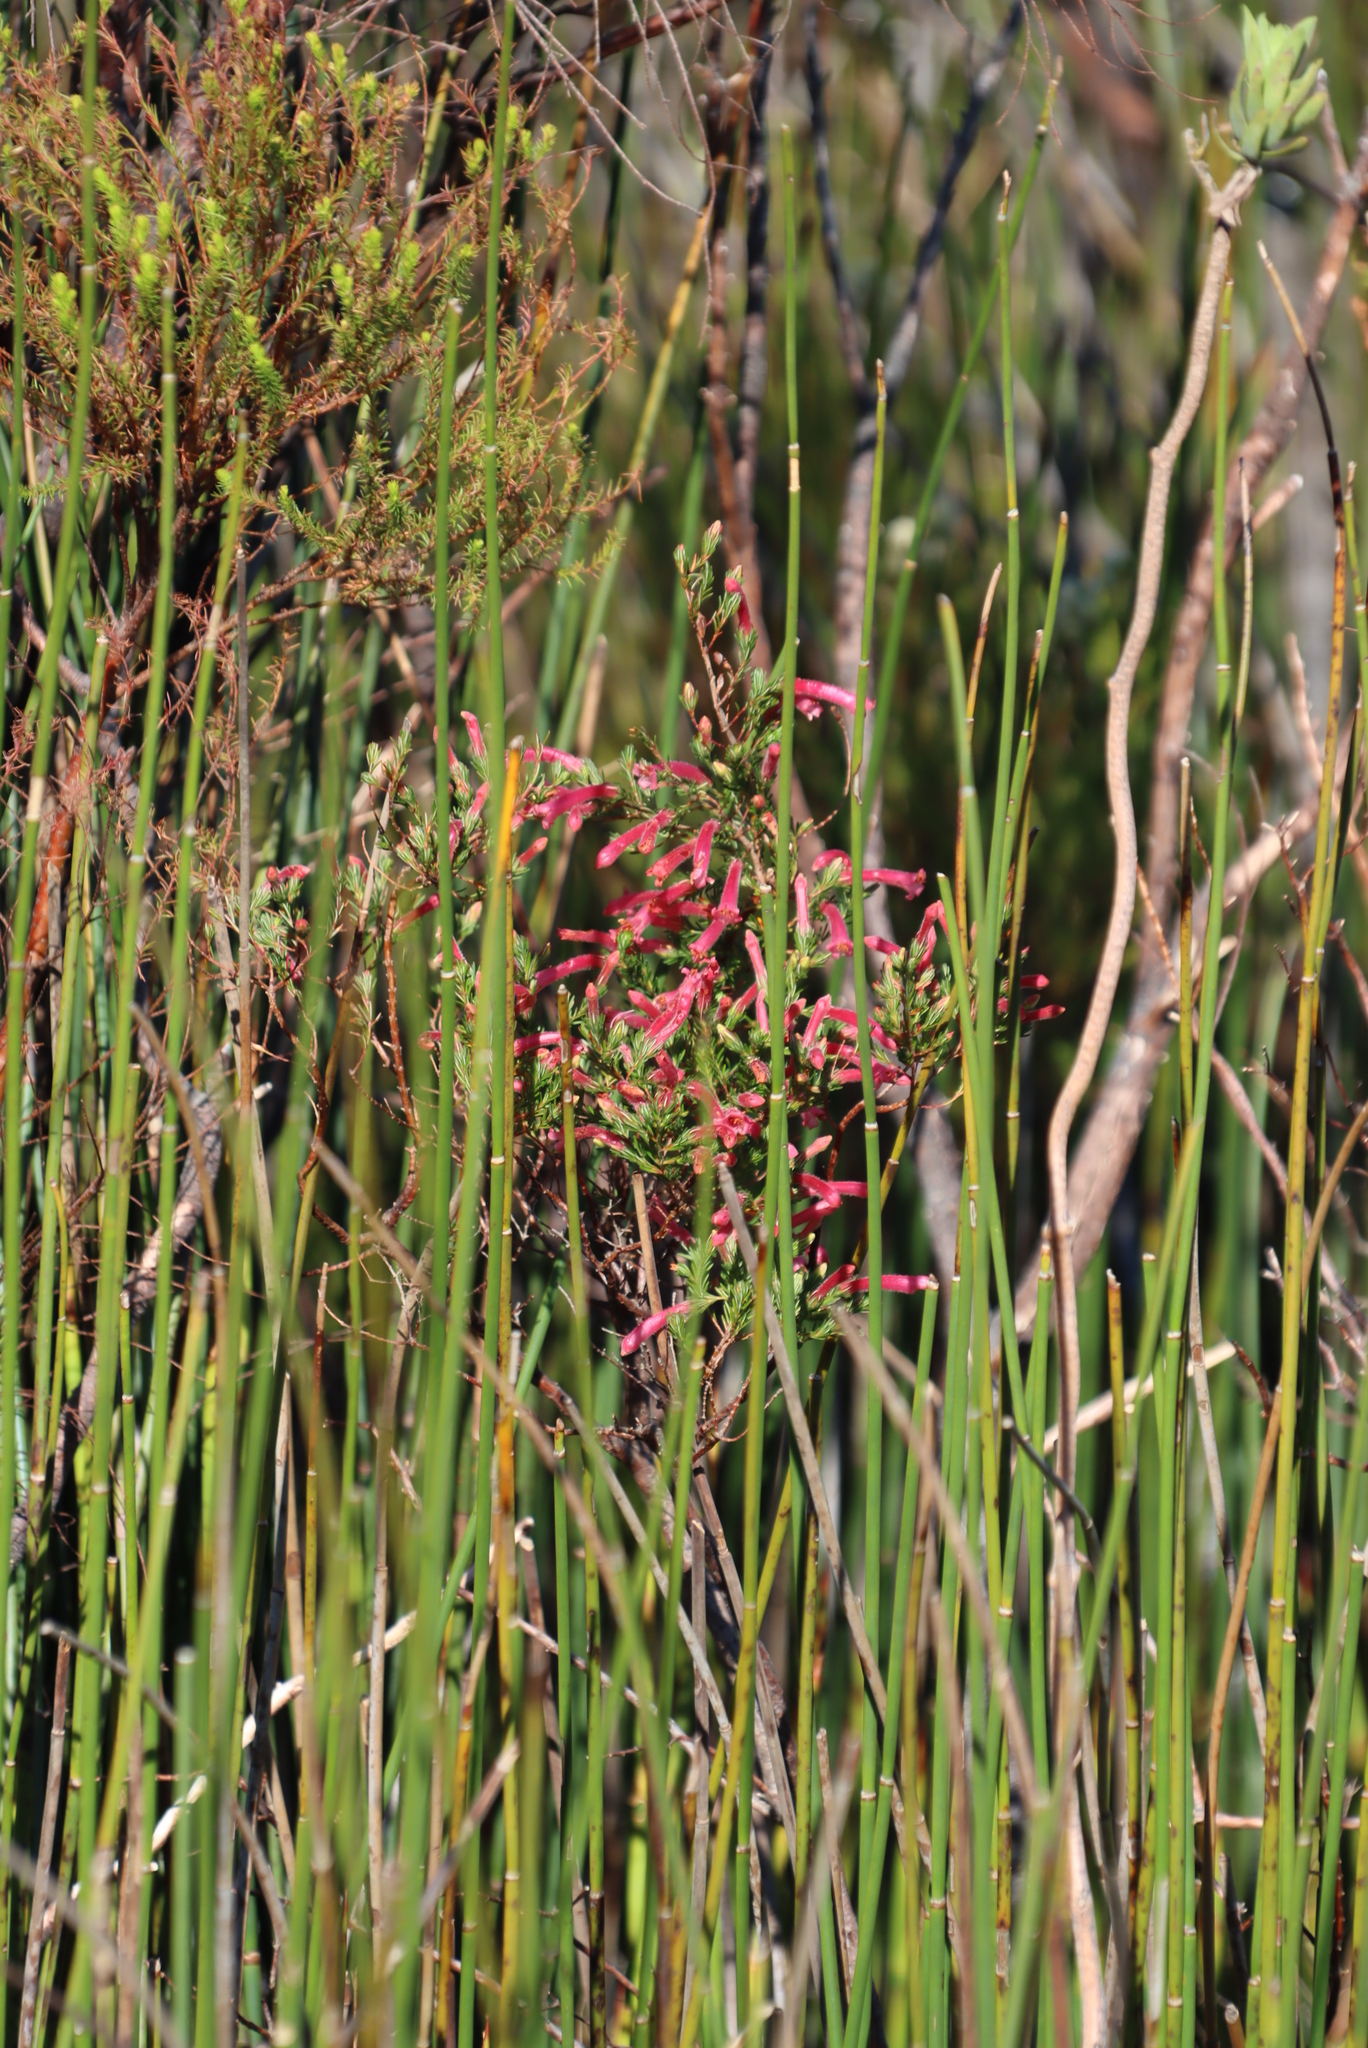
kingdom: Plantae
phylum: Tracheophyta
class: Magnoliopsida
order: Ericales
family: Ericaceae
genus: Erica
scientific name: Erica curviflora
